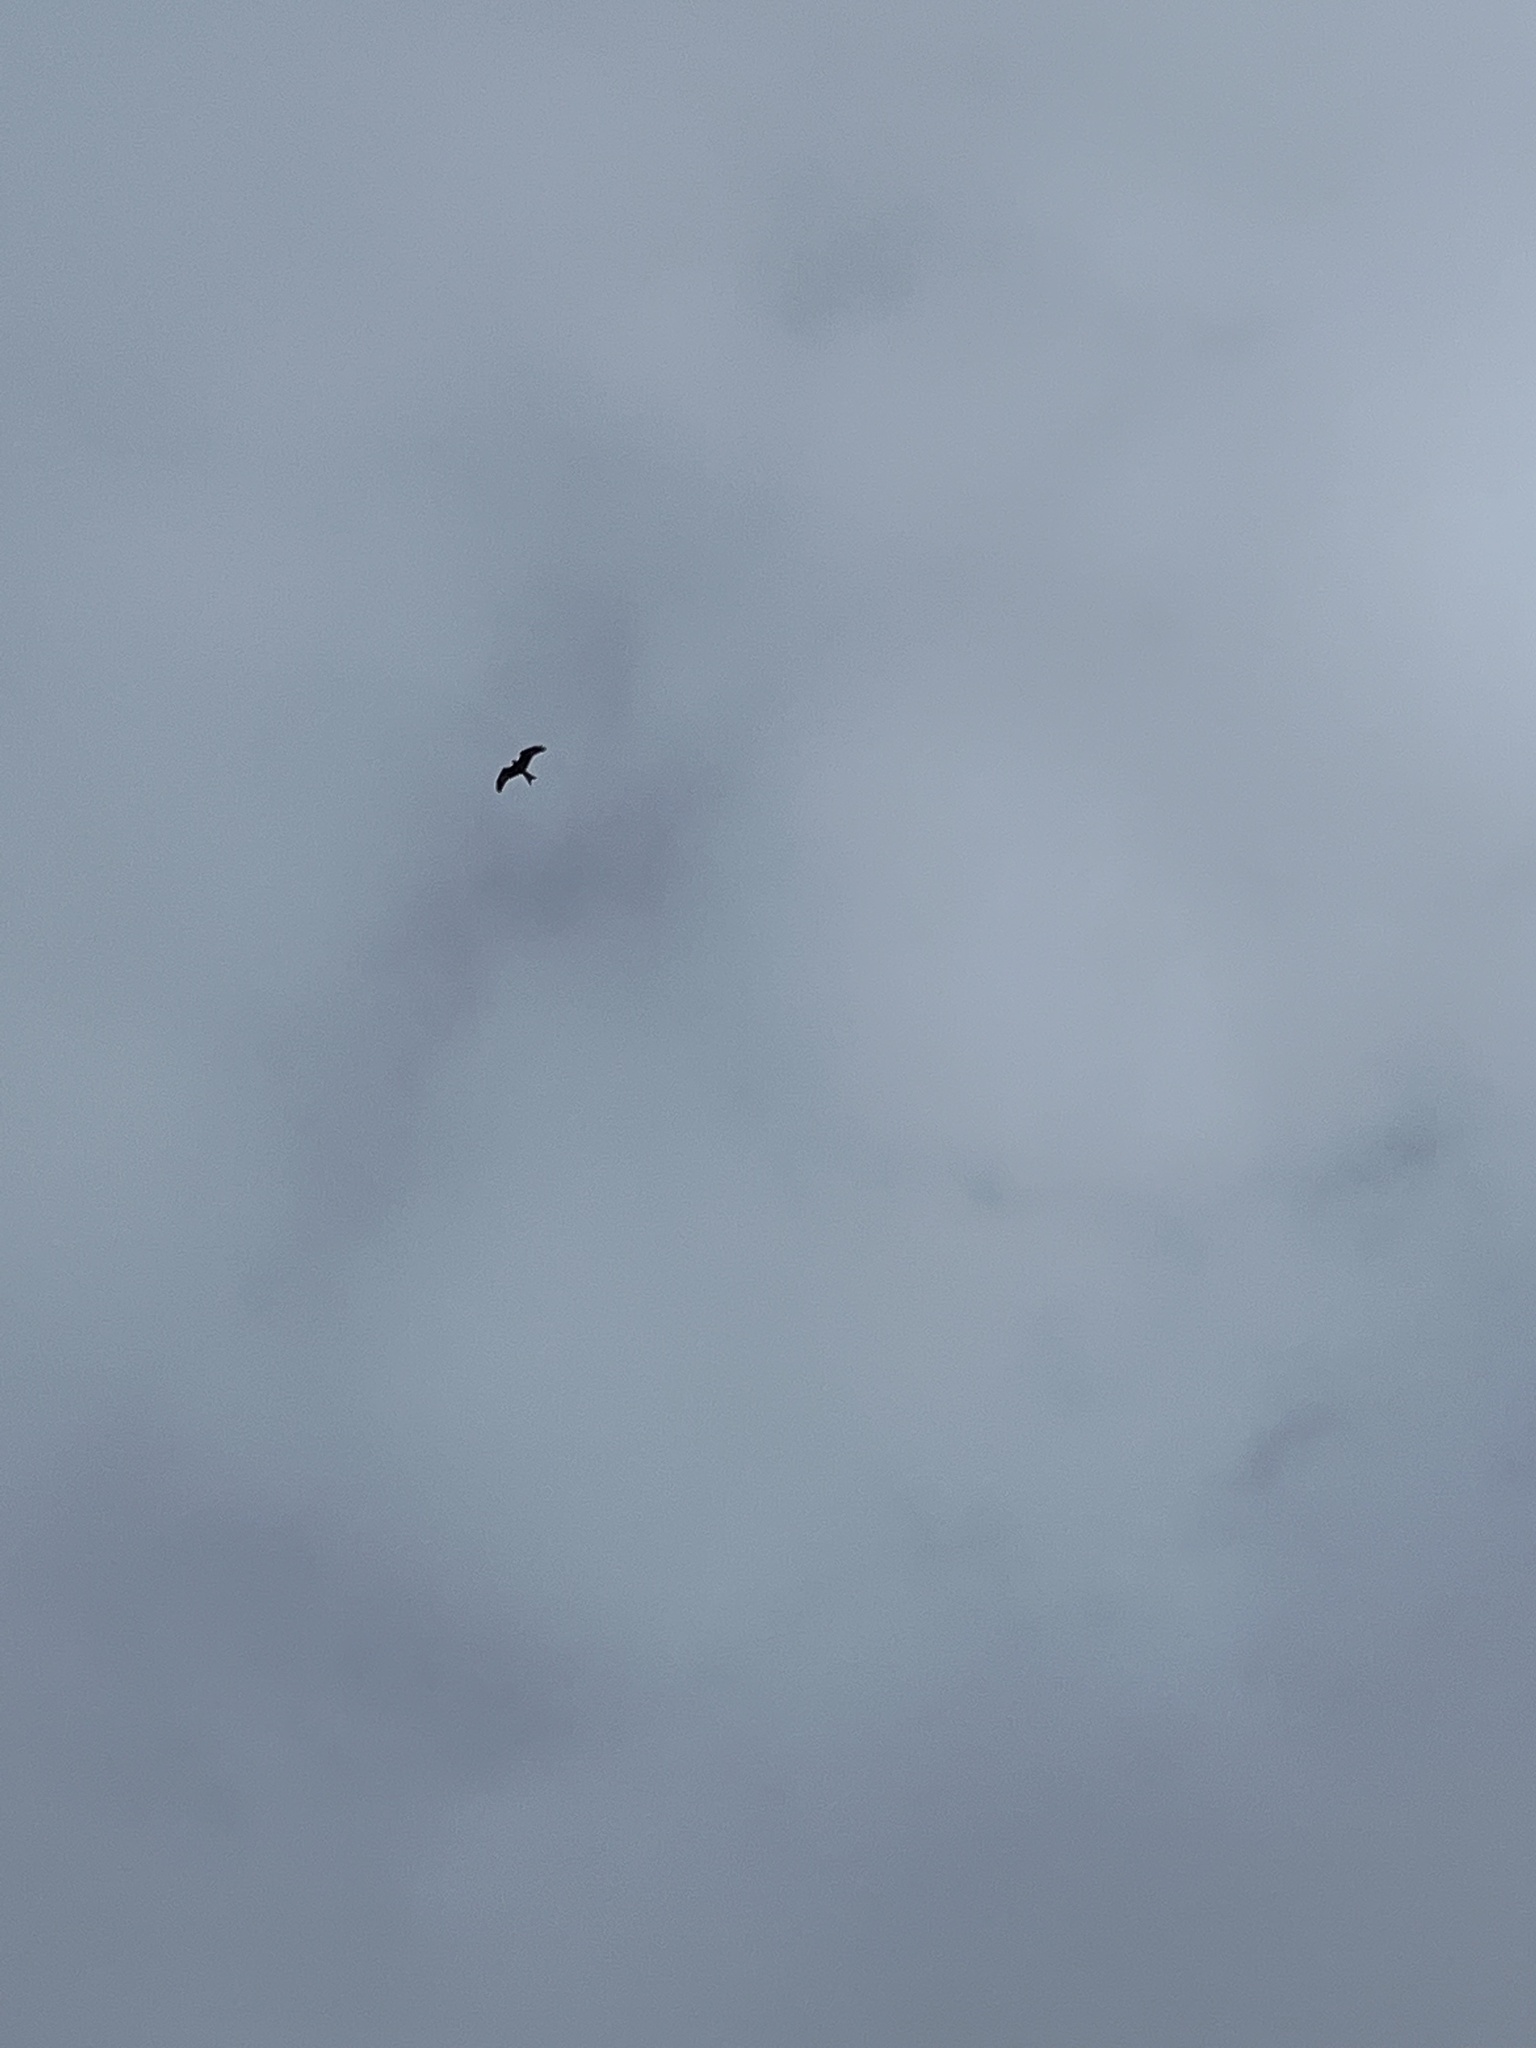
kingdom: Animalia
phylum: Chordata
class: Aves
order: Accipitriformes
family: Accipitridae
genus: Milvus
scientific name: Milvus milvus
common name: Red kite
